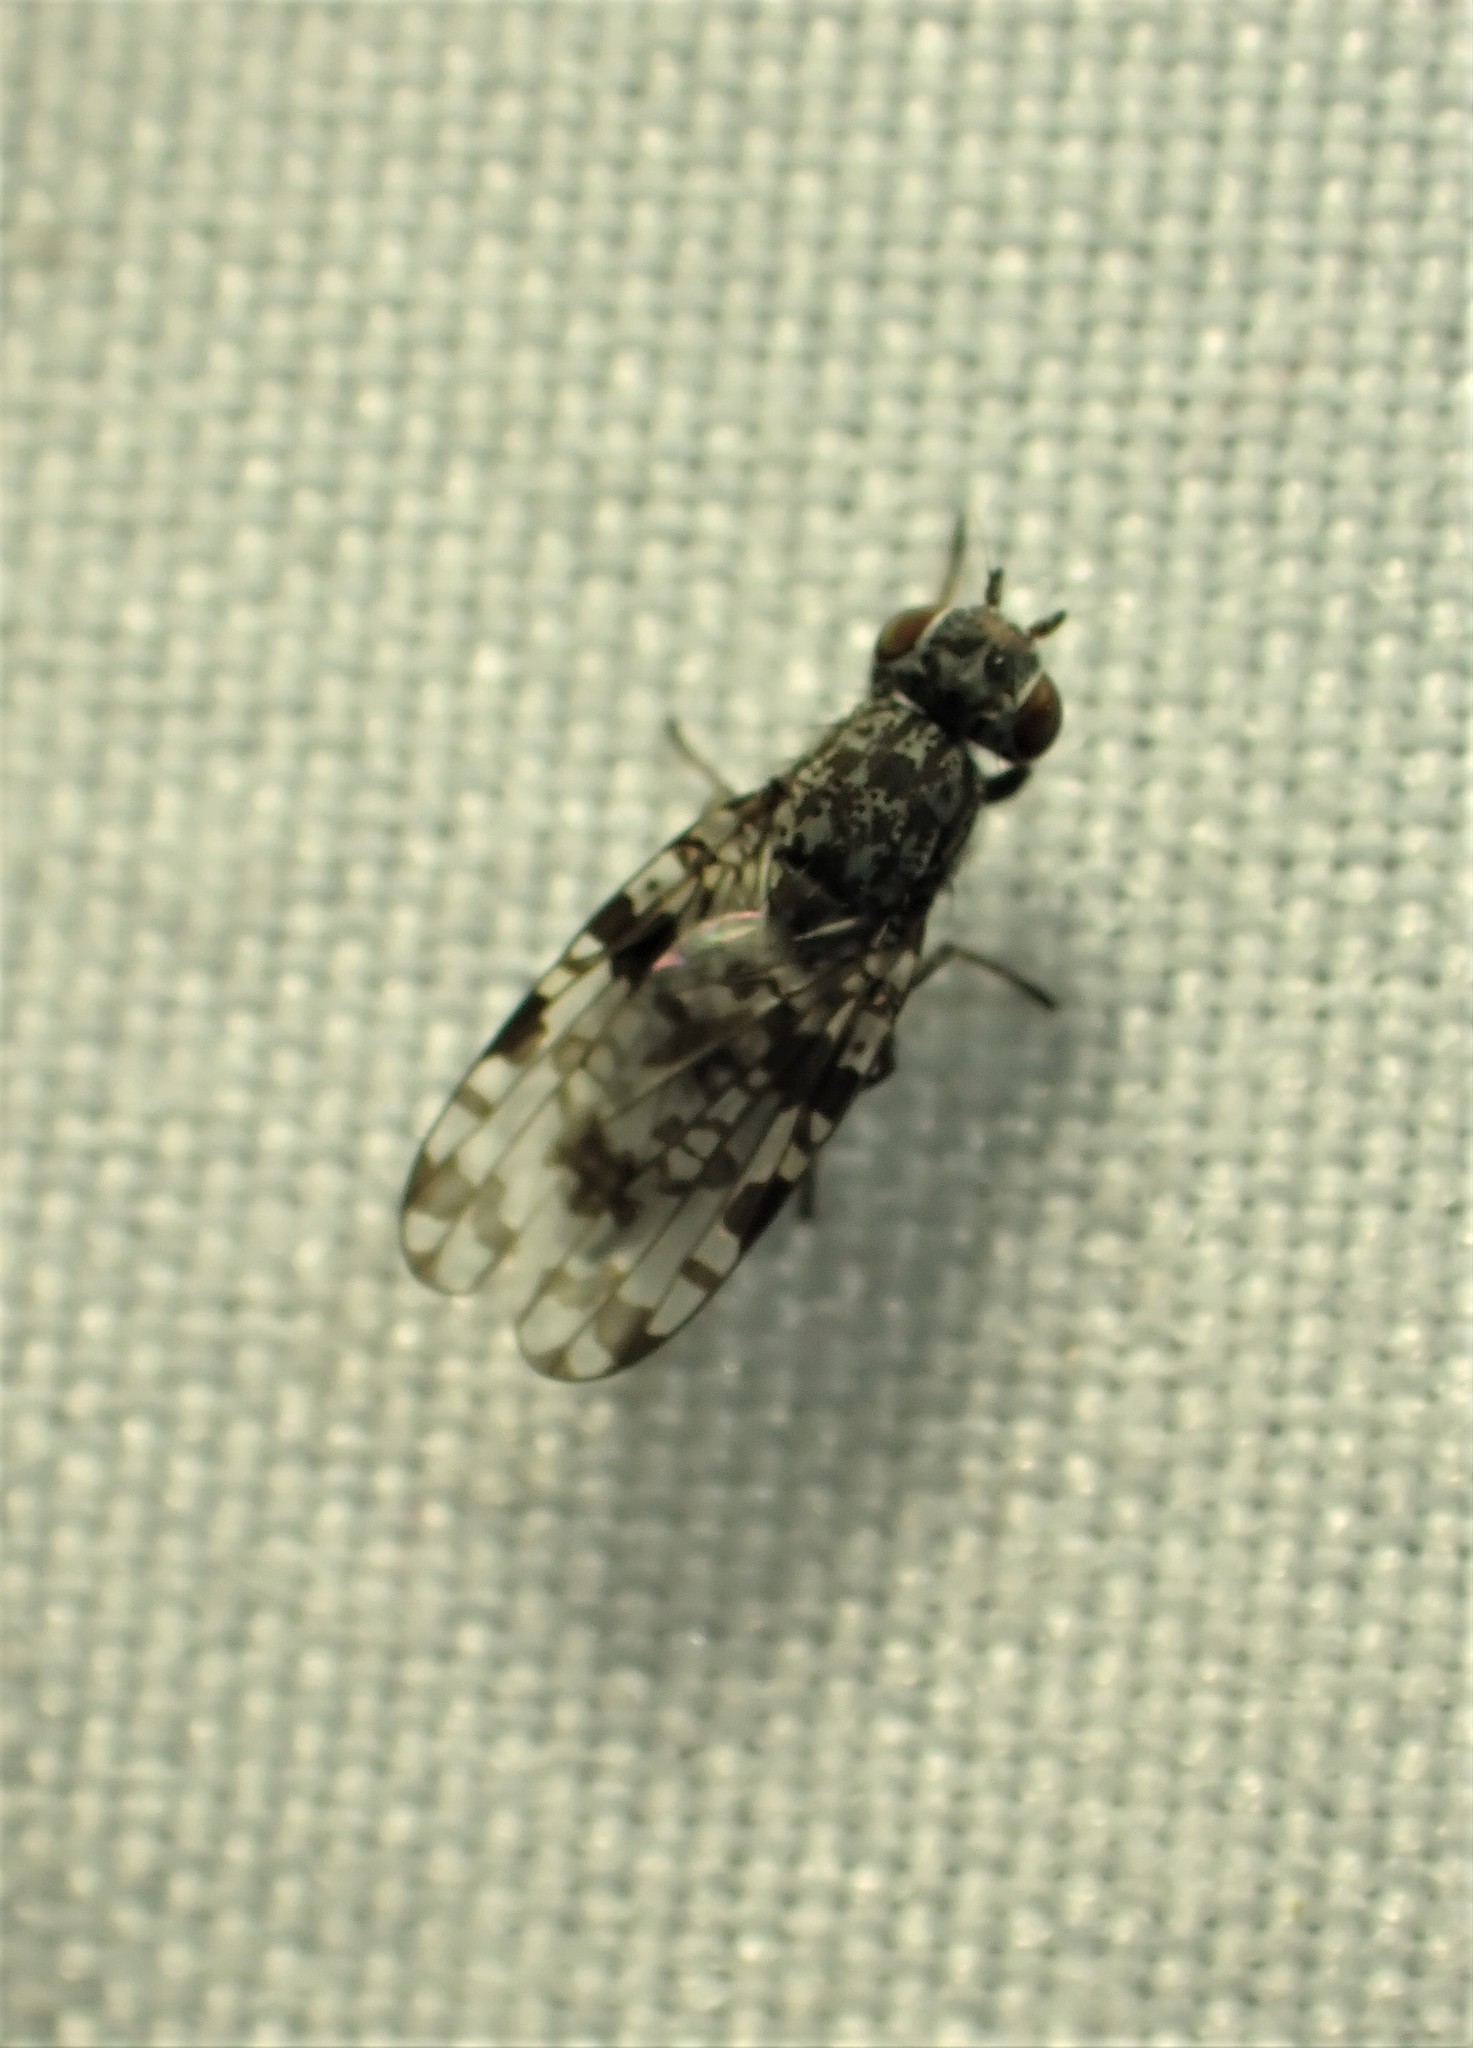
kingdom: Animalia
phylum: Arthropoda
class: Insecta
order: Diptera
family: Ulidiidae
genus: Pseudotephritis
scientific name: Pseudotephritis corticalis
